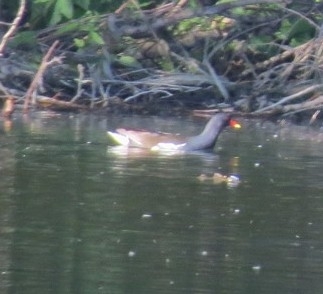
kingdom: Animalia
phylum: Chordata
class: Aves
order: Gruiformes
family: Rallidae
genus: Gallinula
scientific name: Gallinula chloropus
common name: Common moorhen
